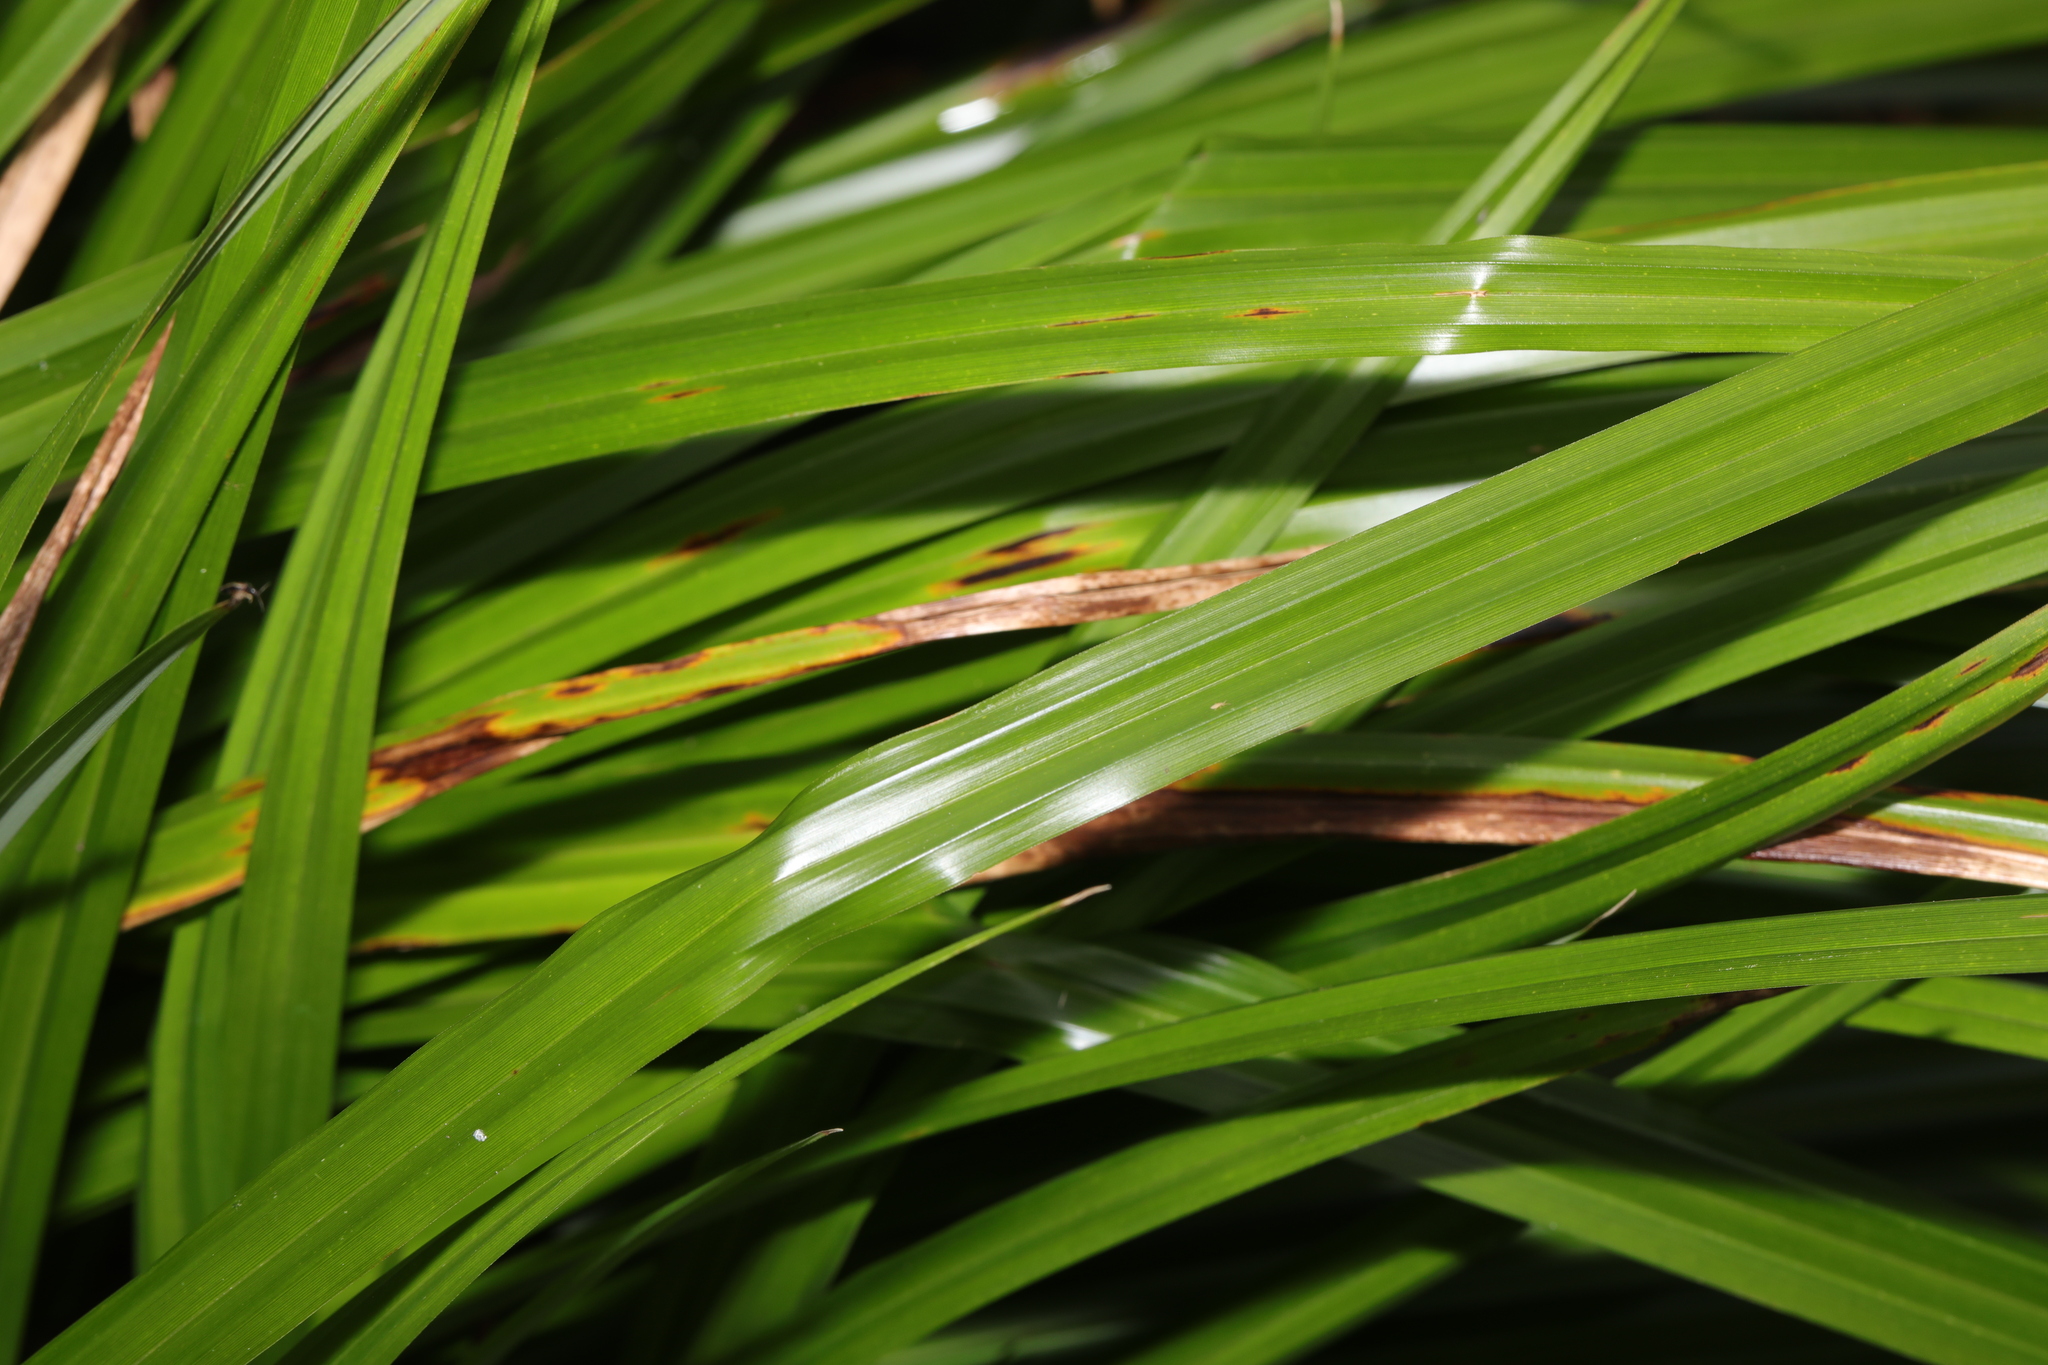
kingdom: Plantae
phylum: Tracheophyta
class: Liliopsida
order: Poales
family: Cyperaceae
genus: Carex
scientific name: Carex pendula
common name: Pendulous sedge
